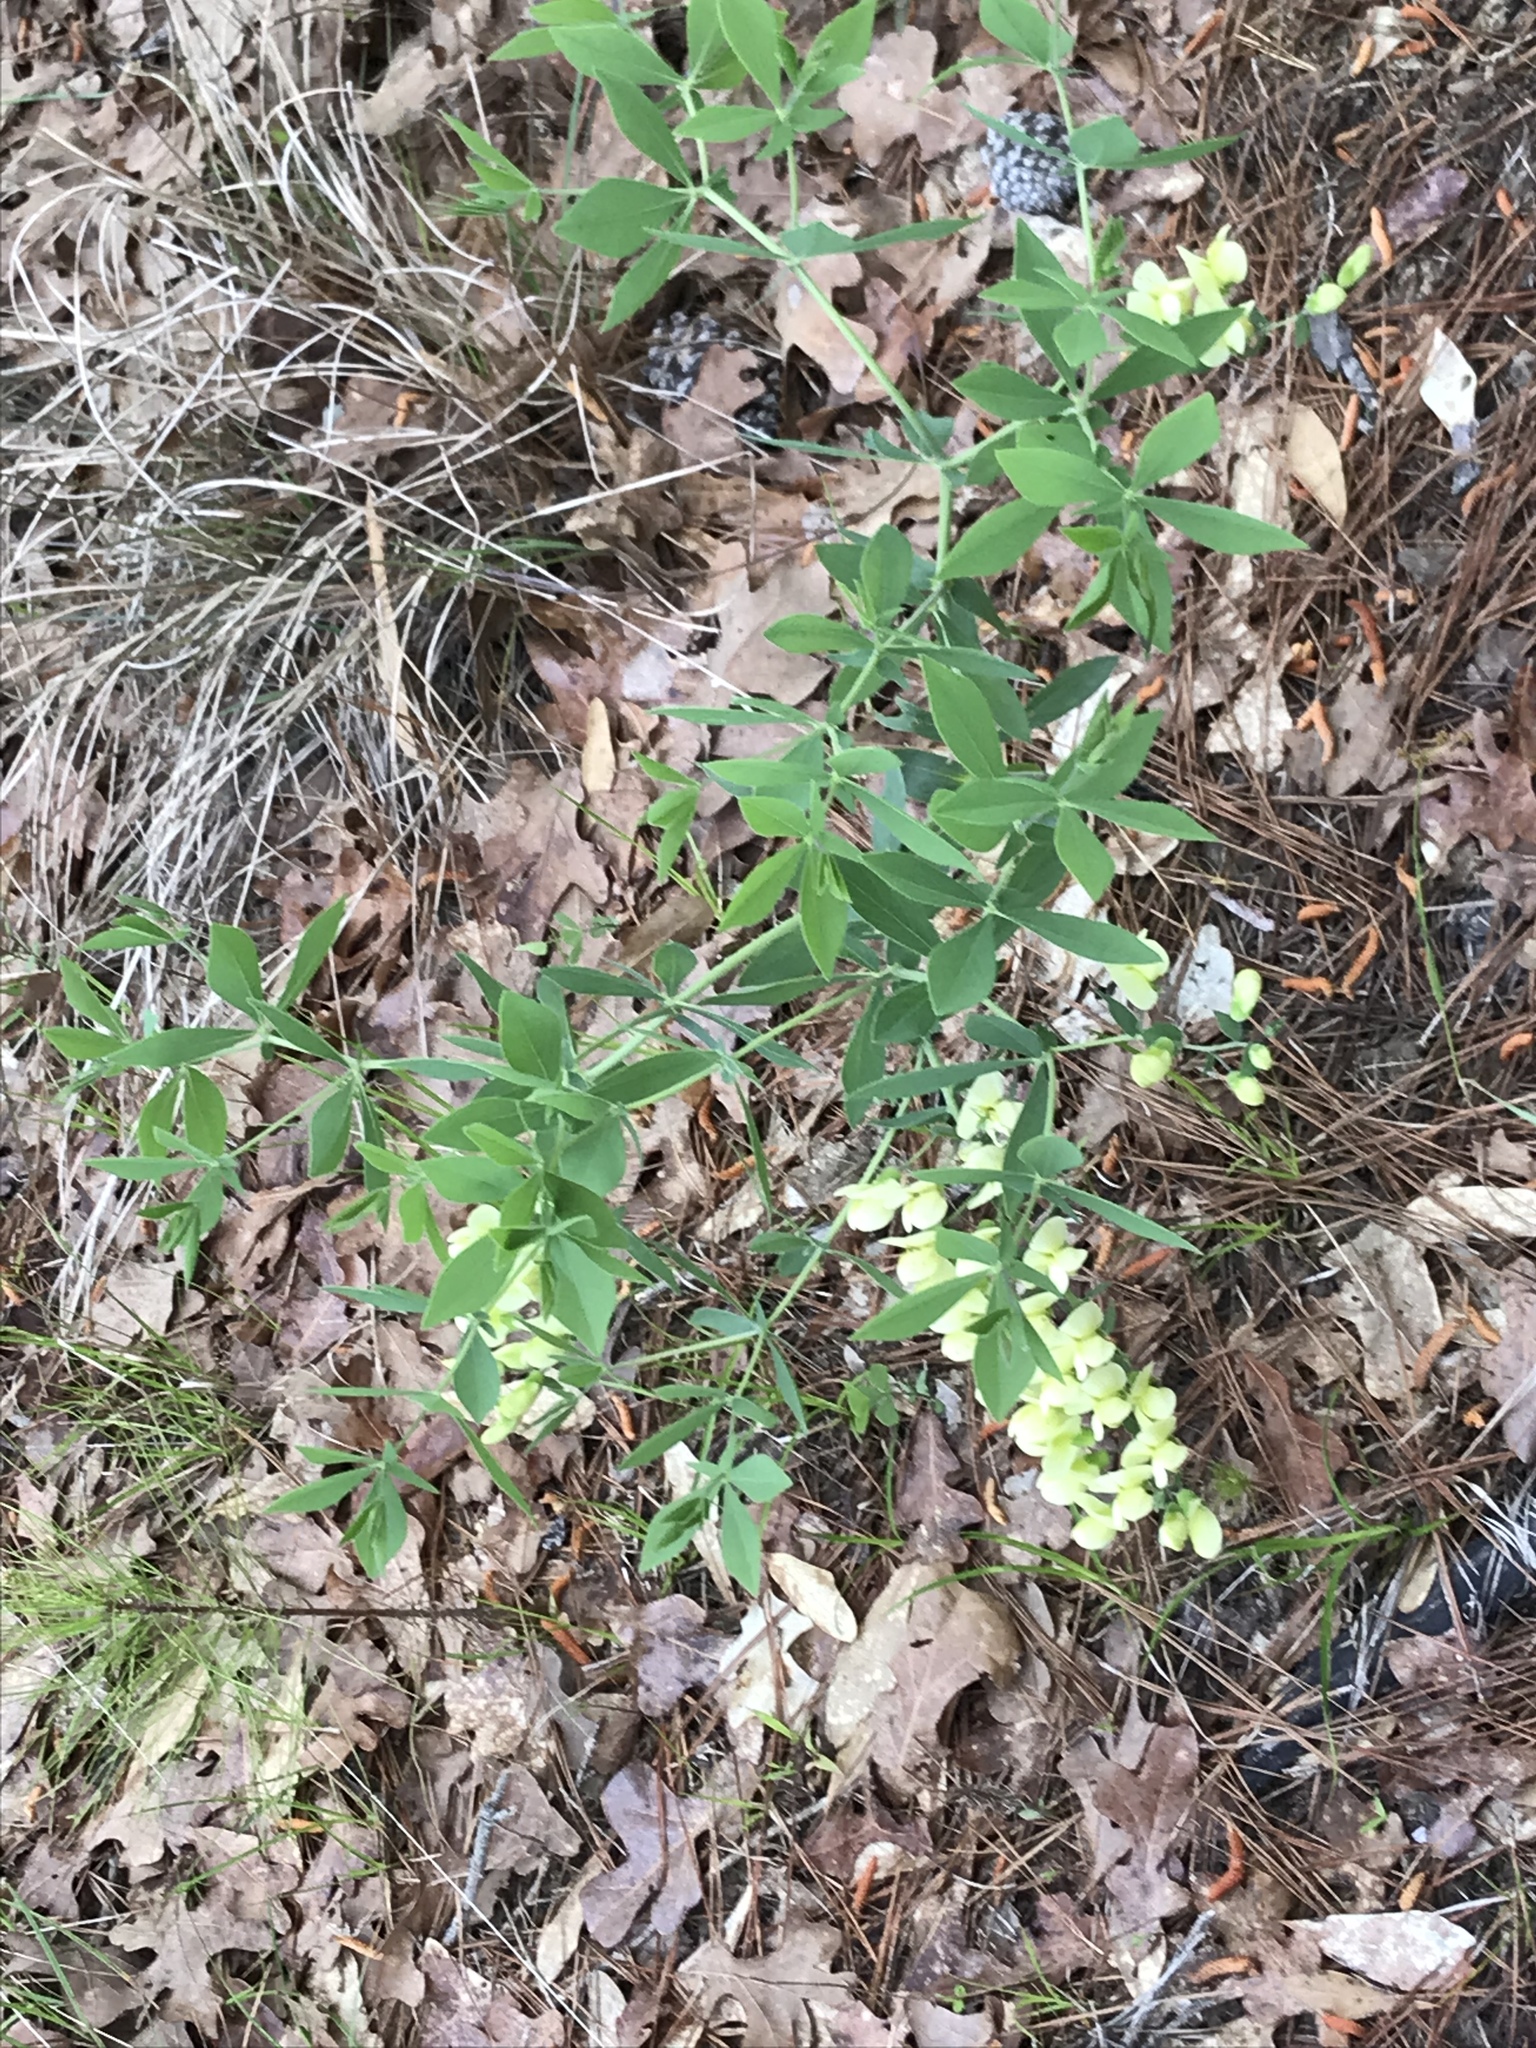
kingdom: Plantae
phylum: Tracheophyta
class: Magnoliopsida
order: Fabales
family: Fabaceae
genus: Baptisia
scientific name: Baptisia bracteata
